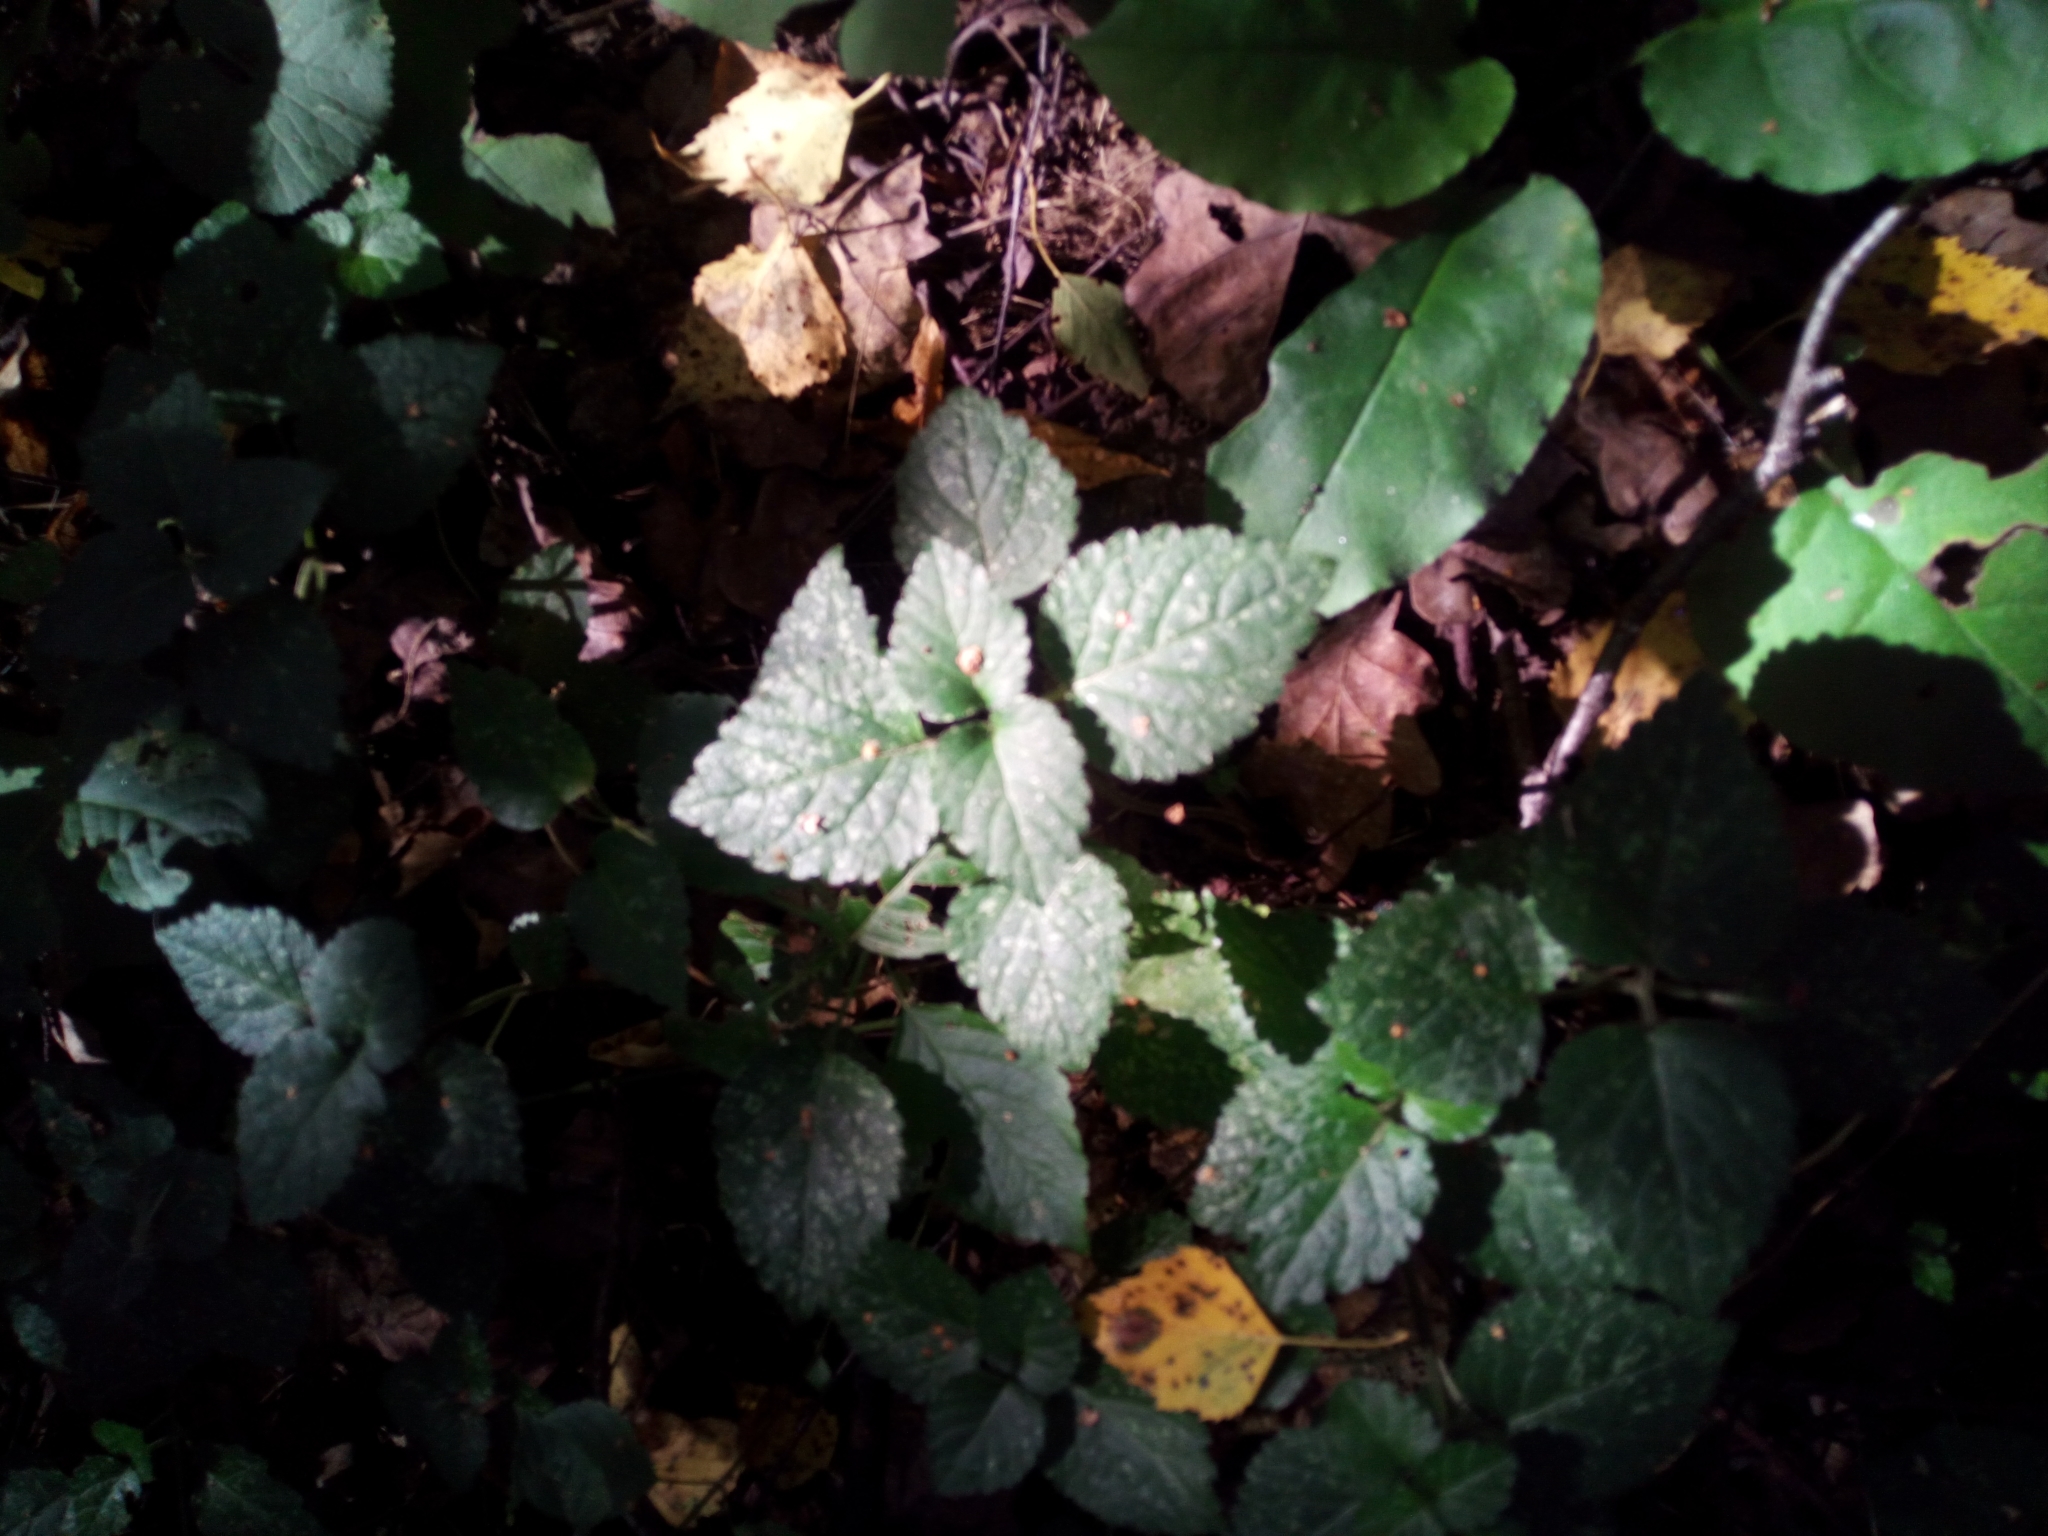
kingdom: Plantae
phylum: Tracheophyta
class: Magnoliopsida
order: Lamiales
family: Lamiaceae
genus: Lamium
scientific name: Lamium galeobdolon
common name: Yellow archangel
